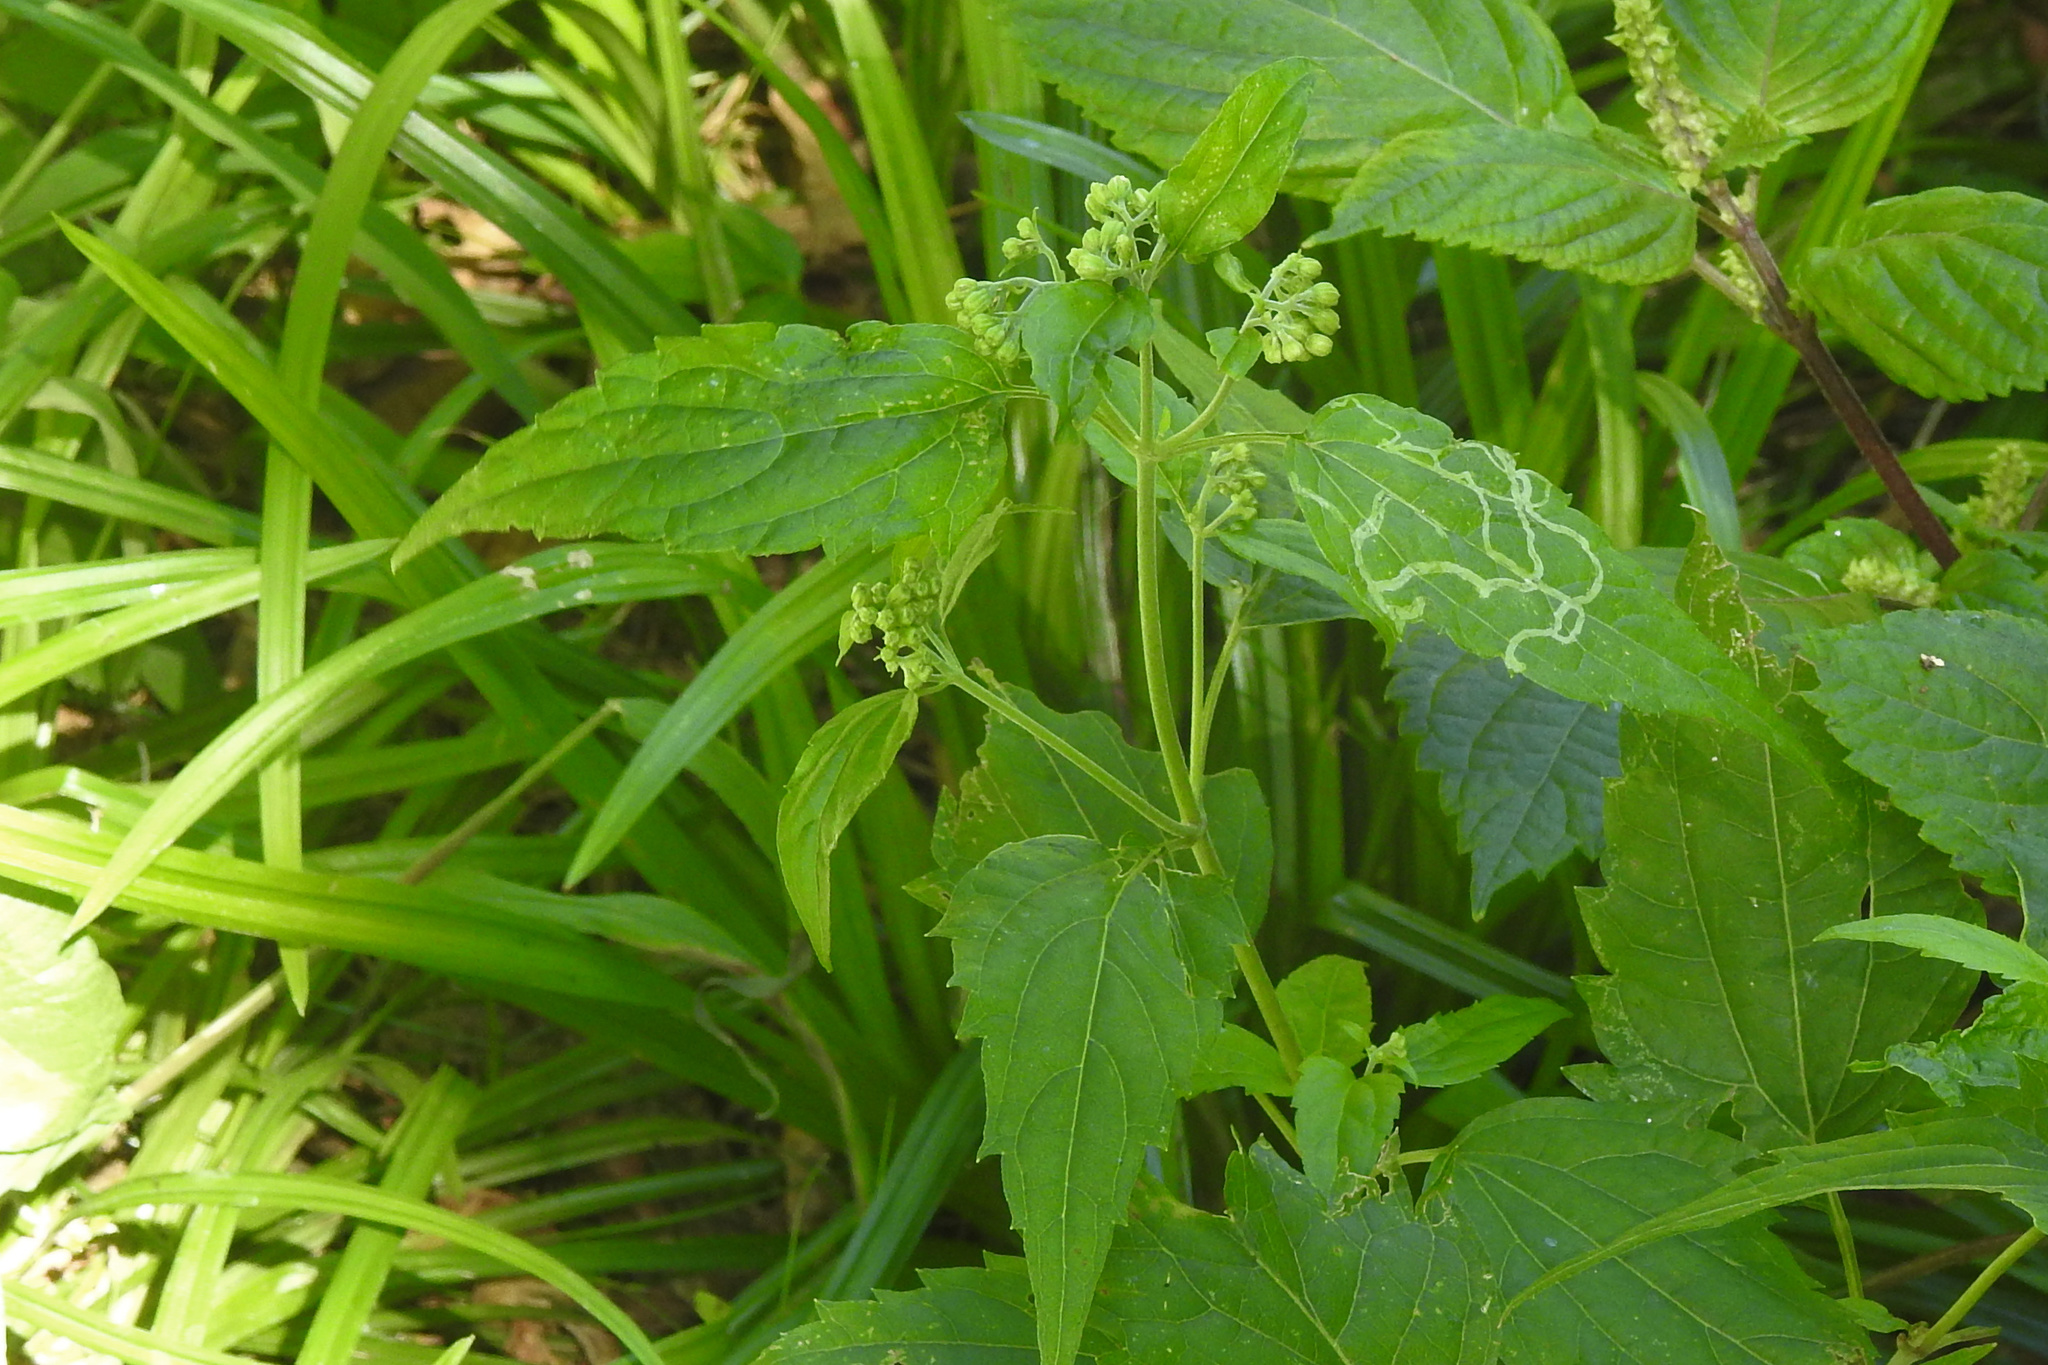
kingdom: Plantae
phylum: Tracheophyta
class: Magnoliopsida
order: Asterales
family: Asteraceae
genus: Ageratina
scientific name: Ageratina altissima
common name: White snakeroot
